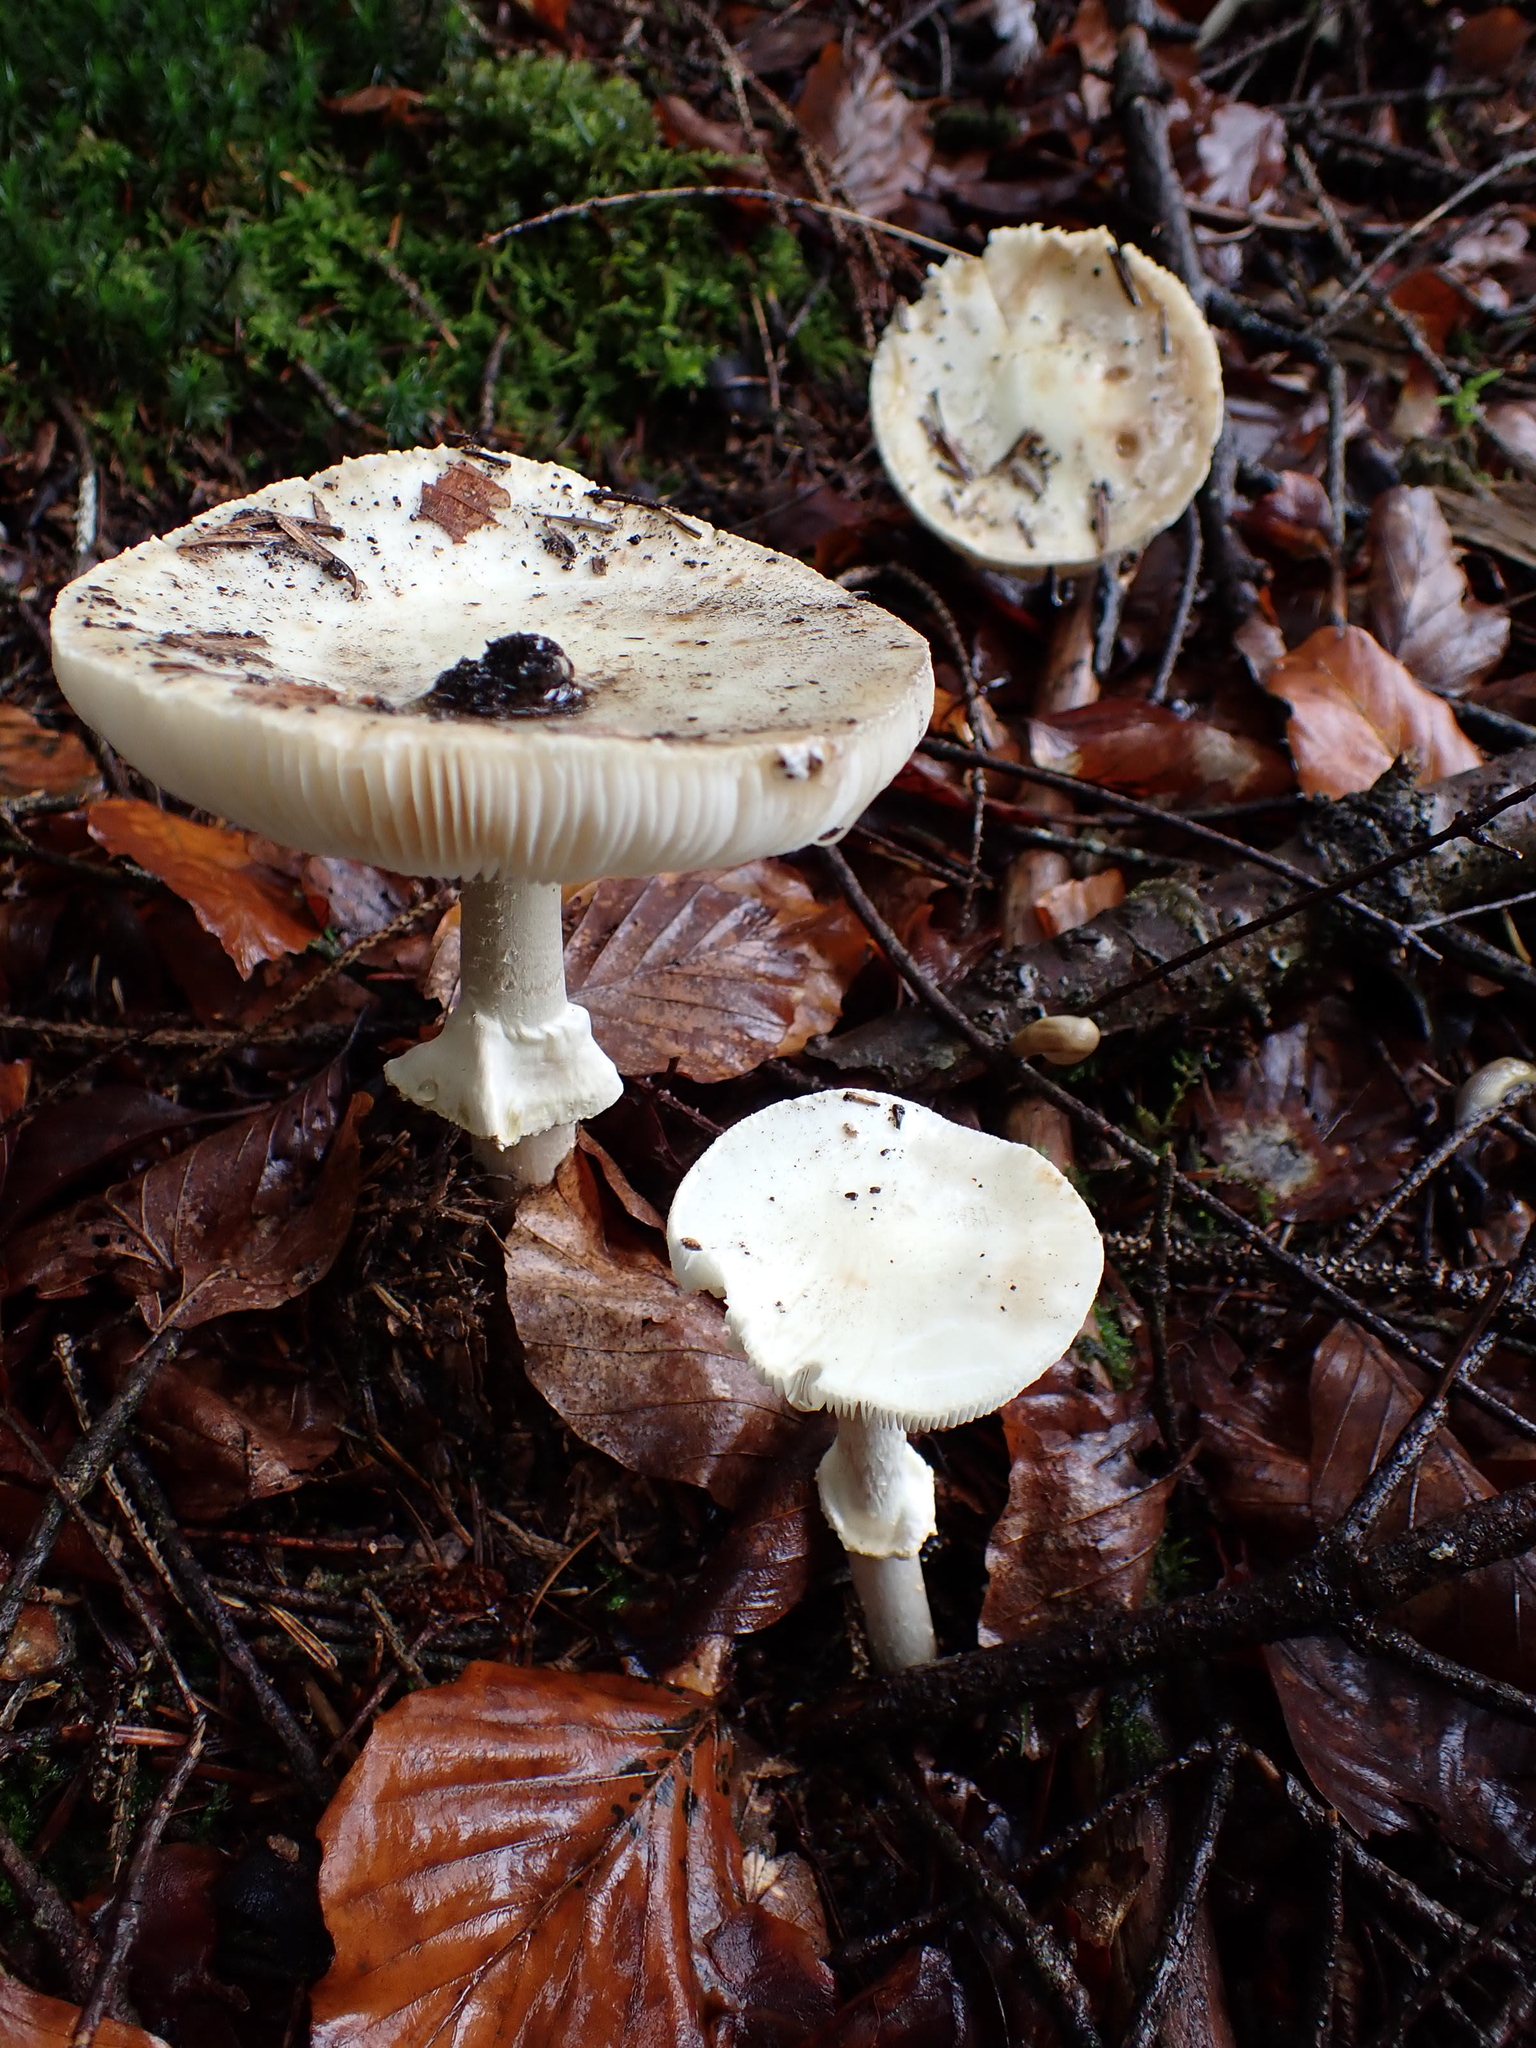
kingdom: Fungi
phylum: Basidiomycota
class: Agaricomycetes
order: Agaricales
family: Amanitaceae
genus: Amanita
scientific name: Amanita citrina
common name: False death-cap
